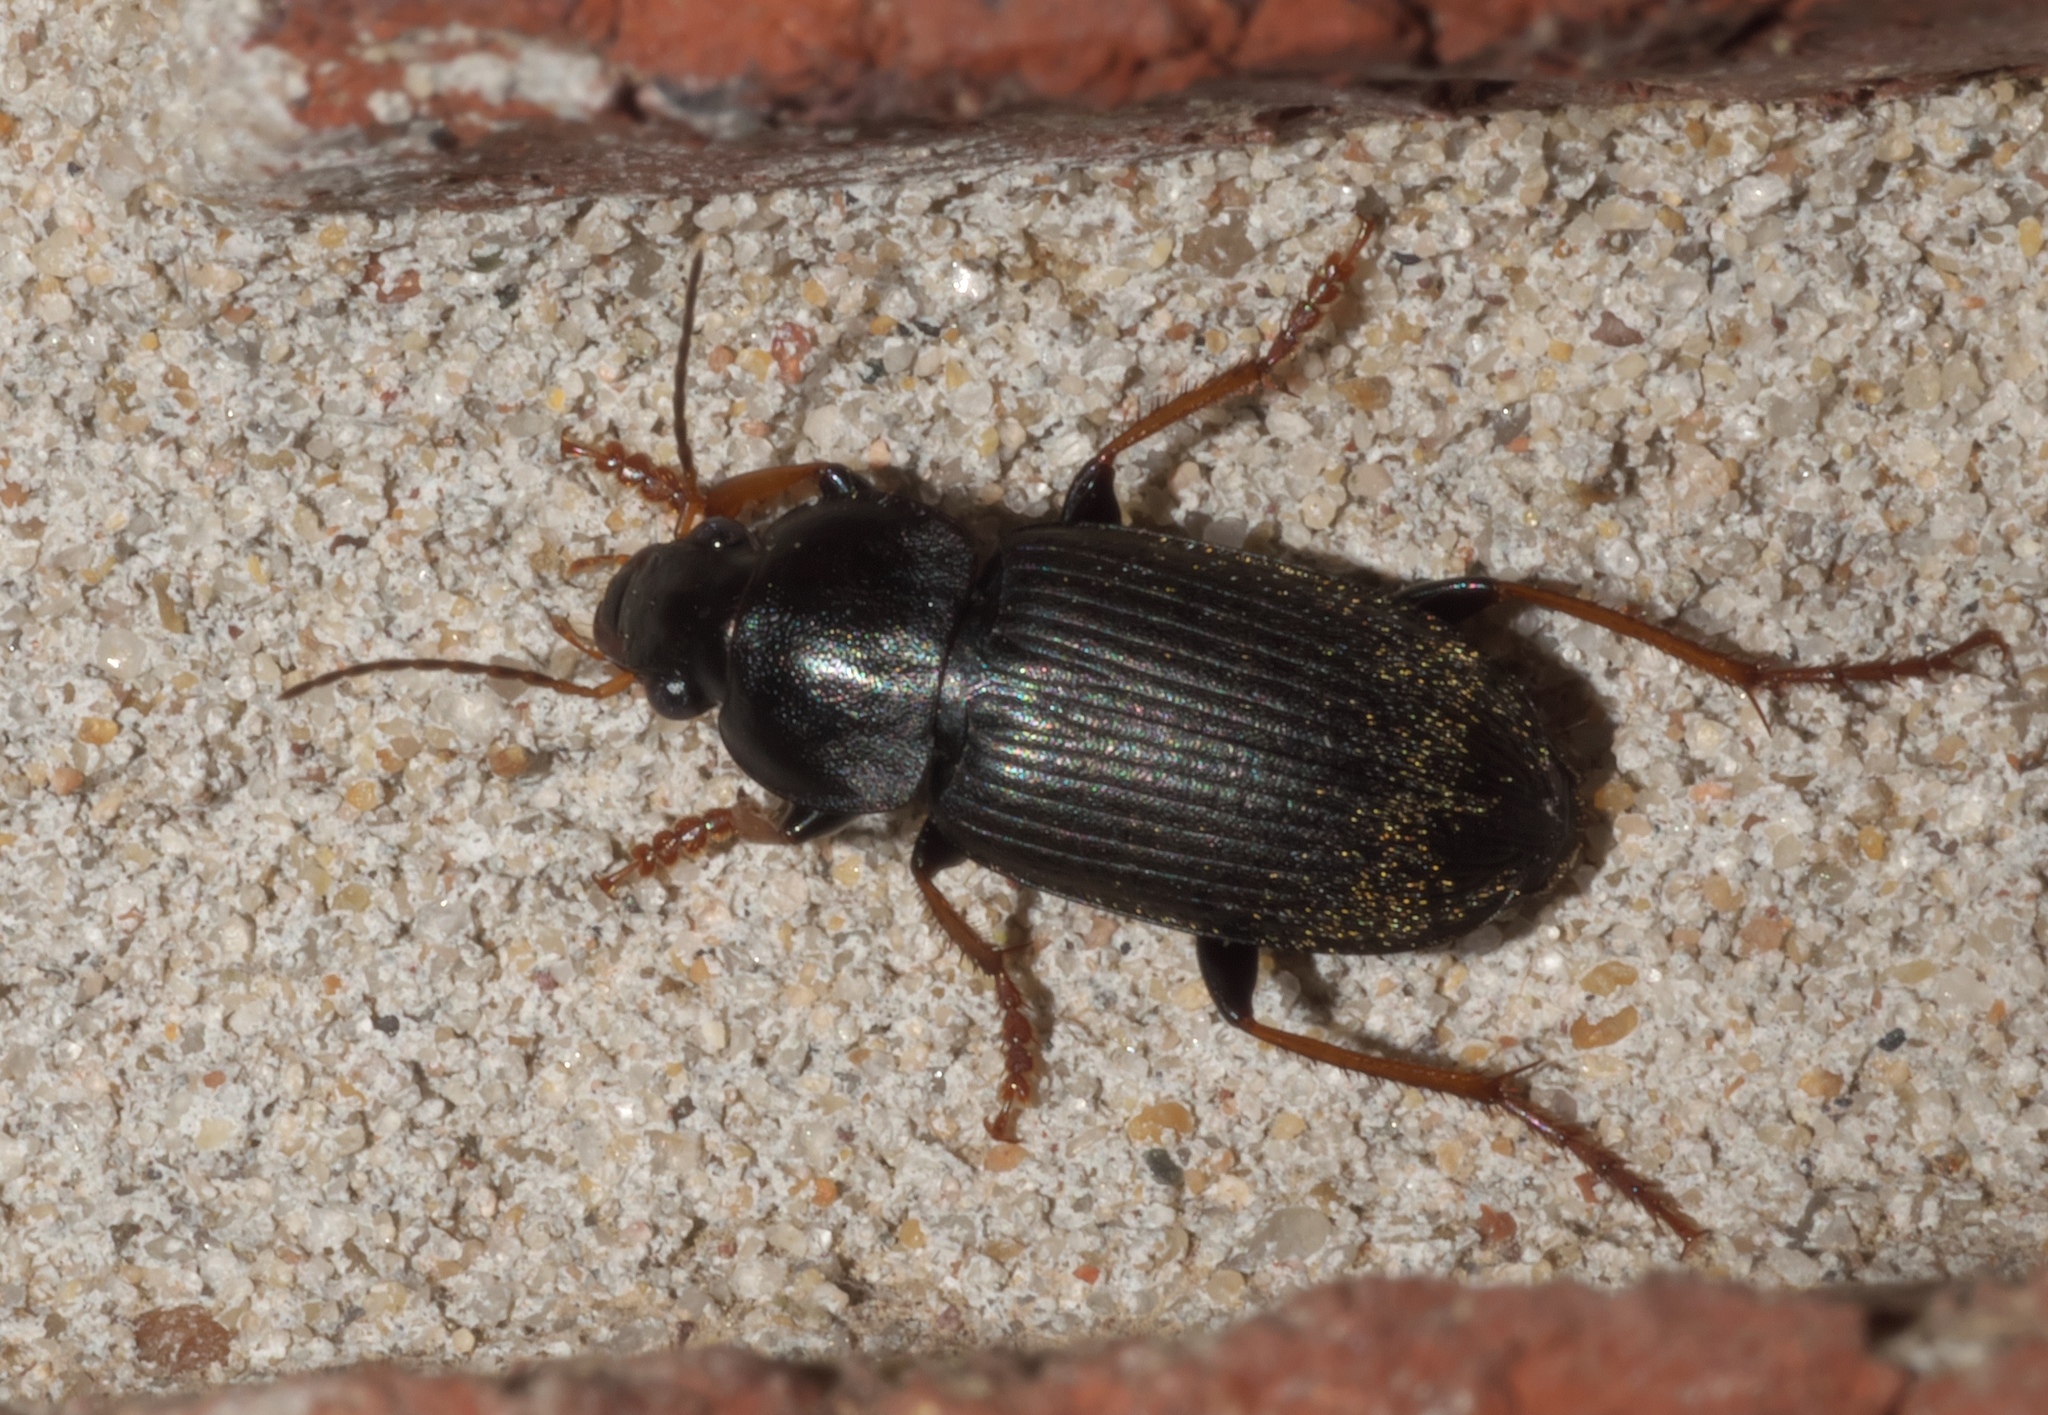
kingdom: Animalia
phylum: Arthropoda
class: Insecta
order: Coleoptera
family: Carabidae
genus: Amphasia
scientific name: Amphasia sericea
